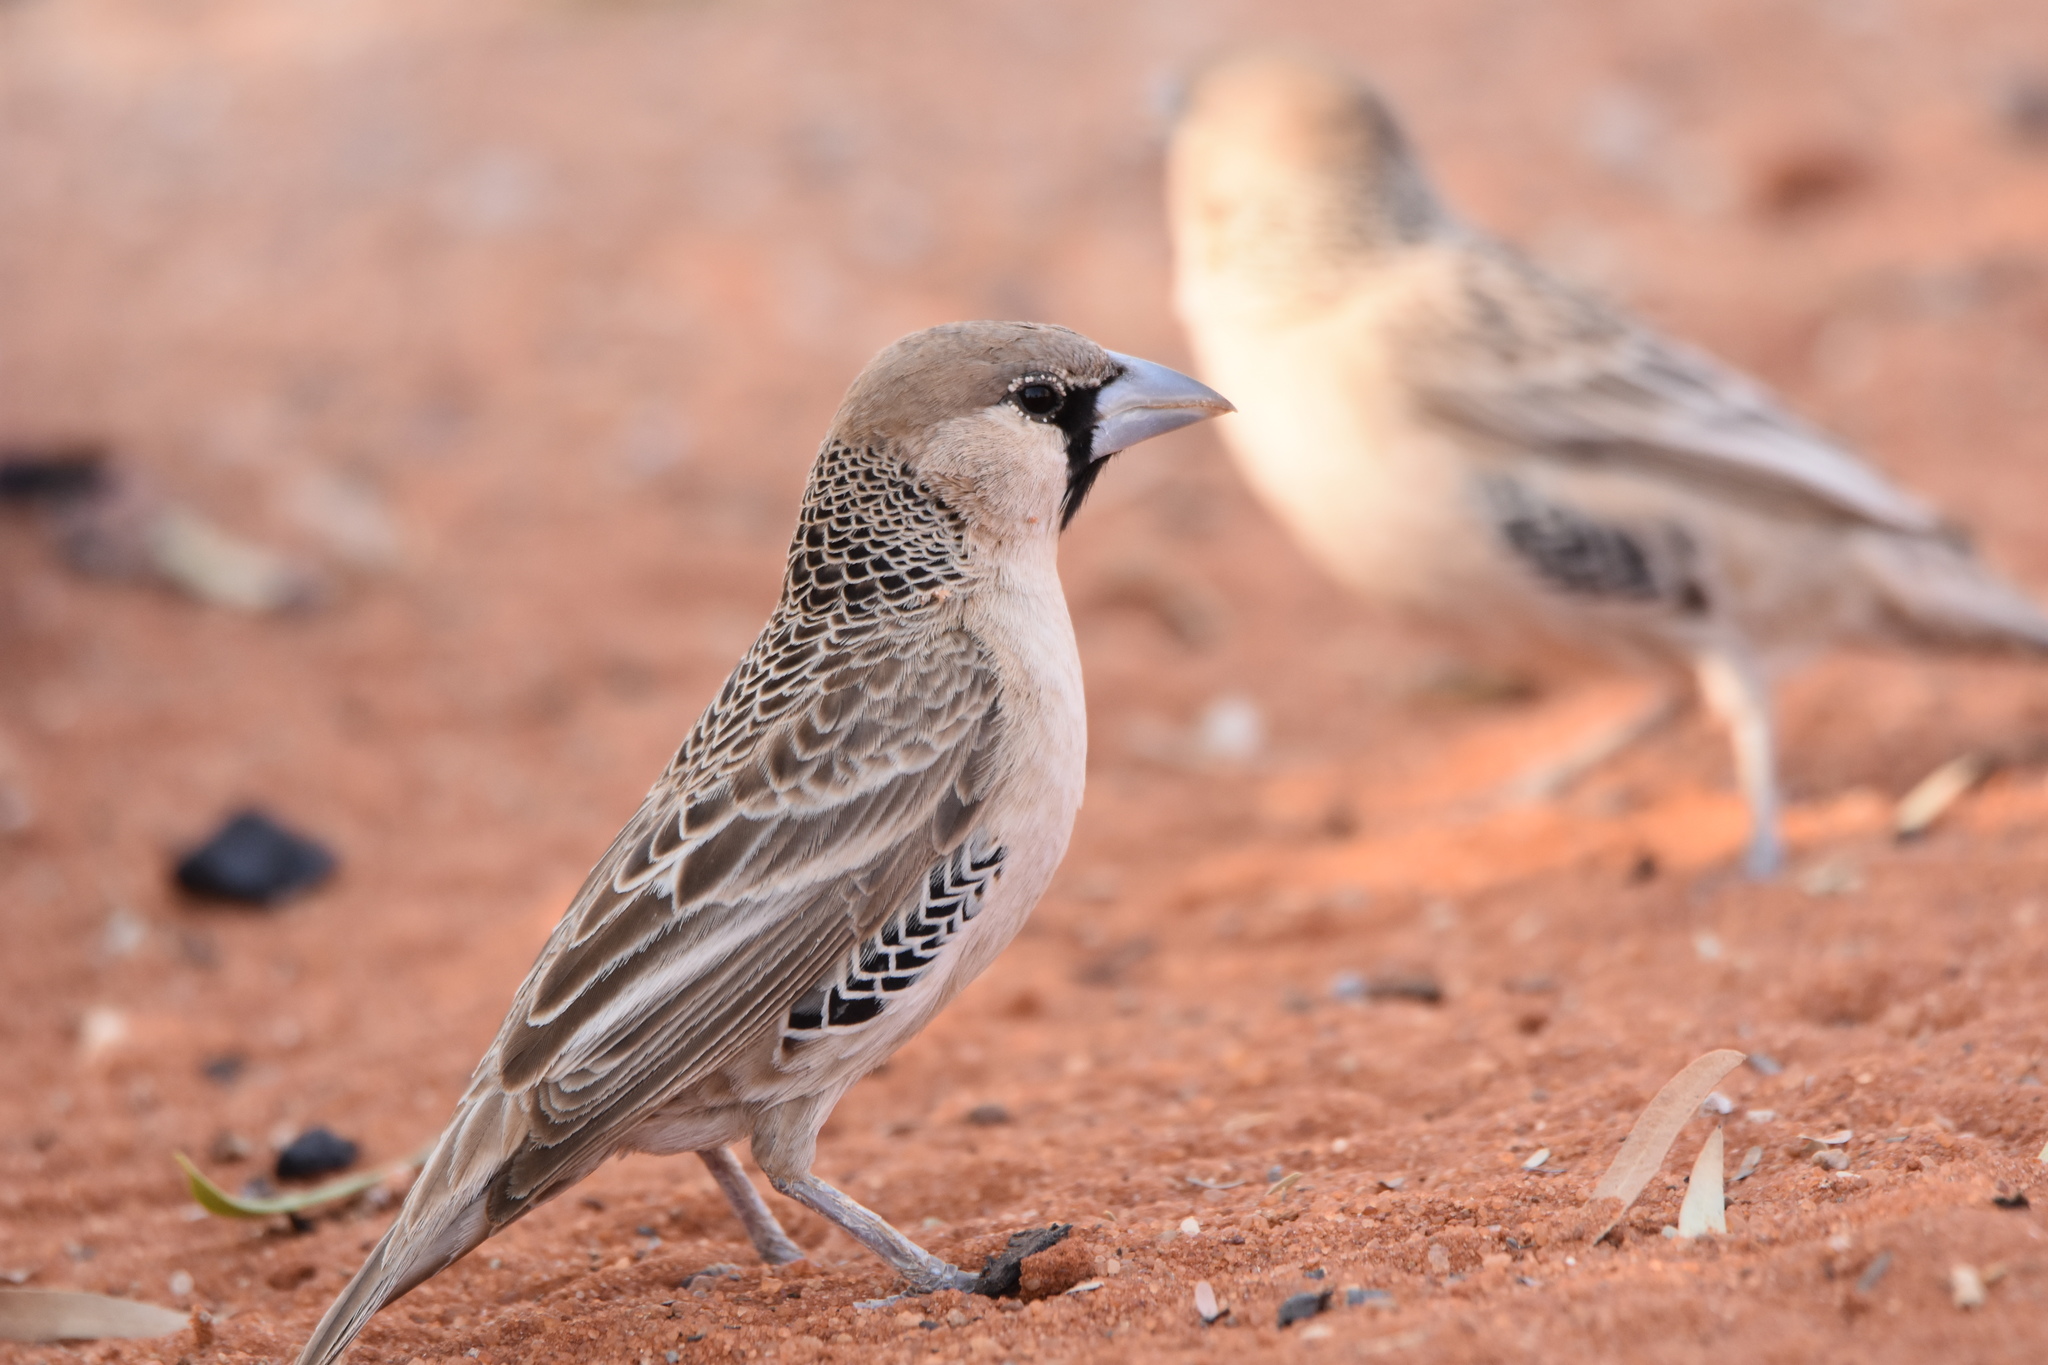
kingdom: Animalia
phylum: Chordata
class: Aves
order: Passeriformes
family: Passeridae
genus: Philetairus
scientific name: Philetairus socius
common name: Sociable weaver
